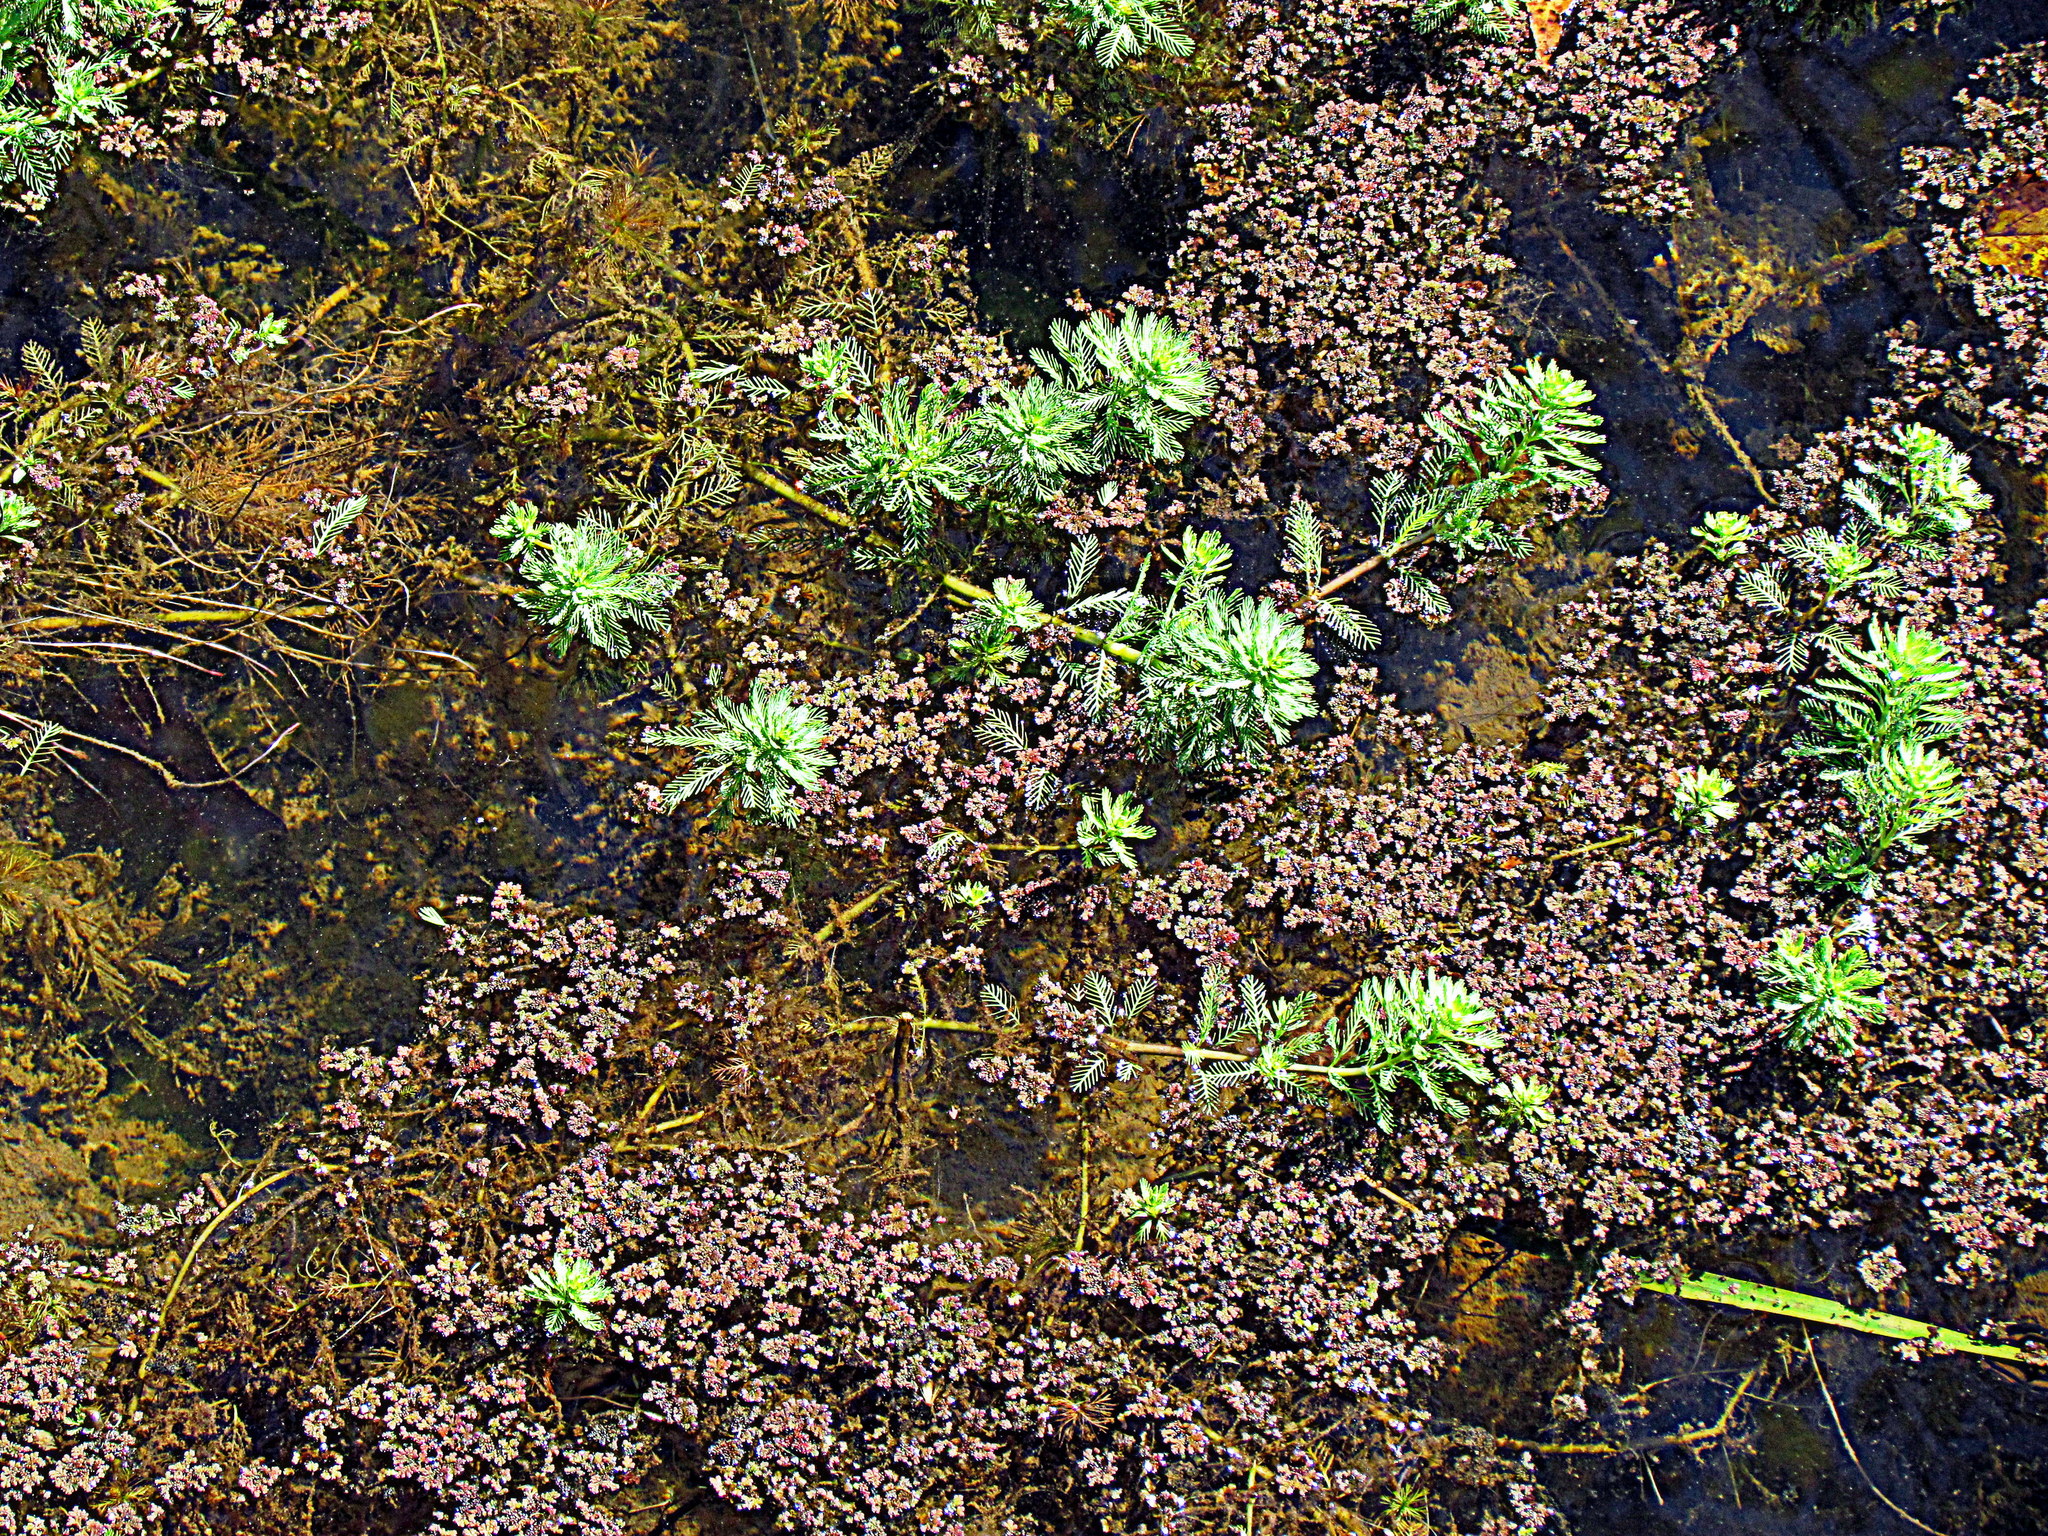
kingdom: Plantae
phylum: Tracheophyta
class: Magnoliopsida
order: Saxifragales
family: Haloragaceae
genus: Myriophyllum
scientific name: Myriophyllum aquaticum
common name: Parrot's feather
